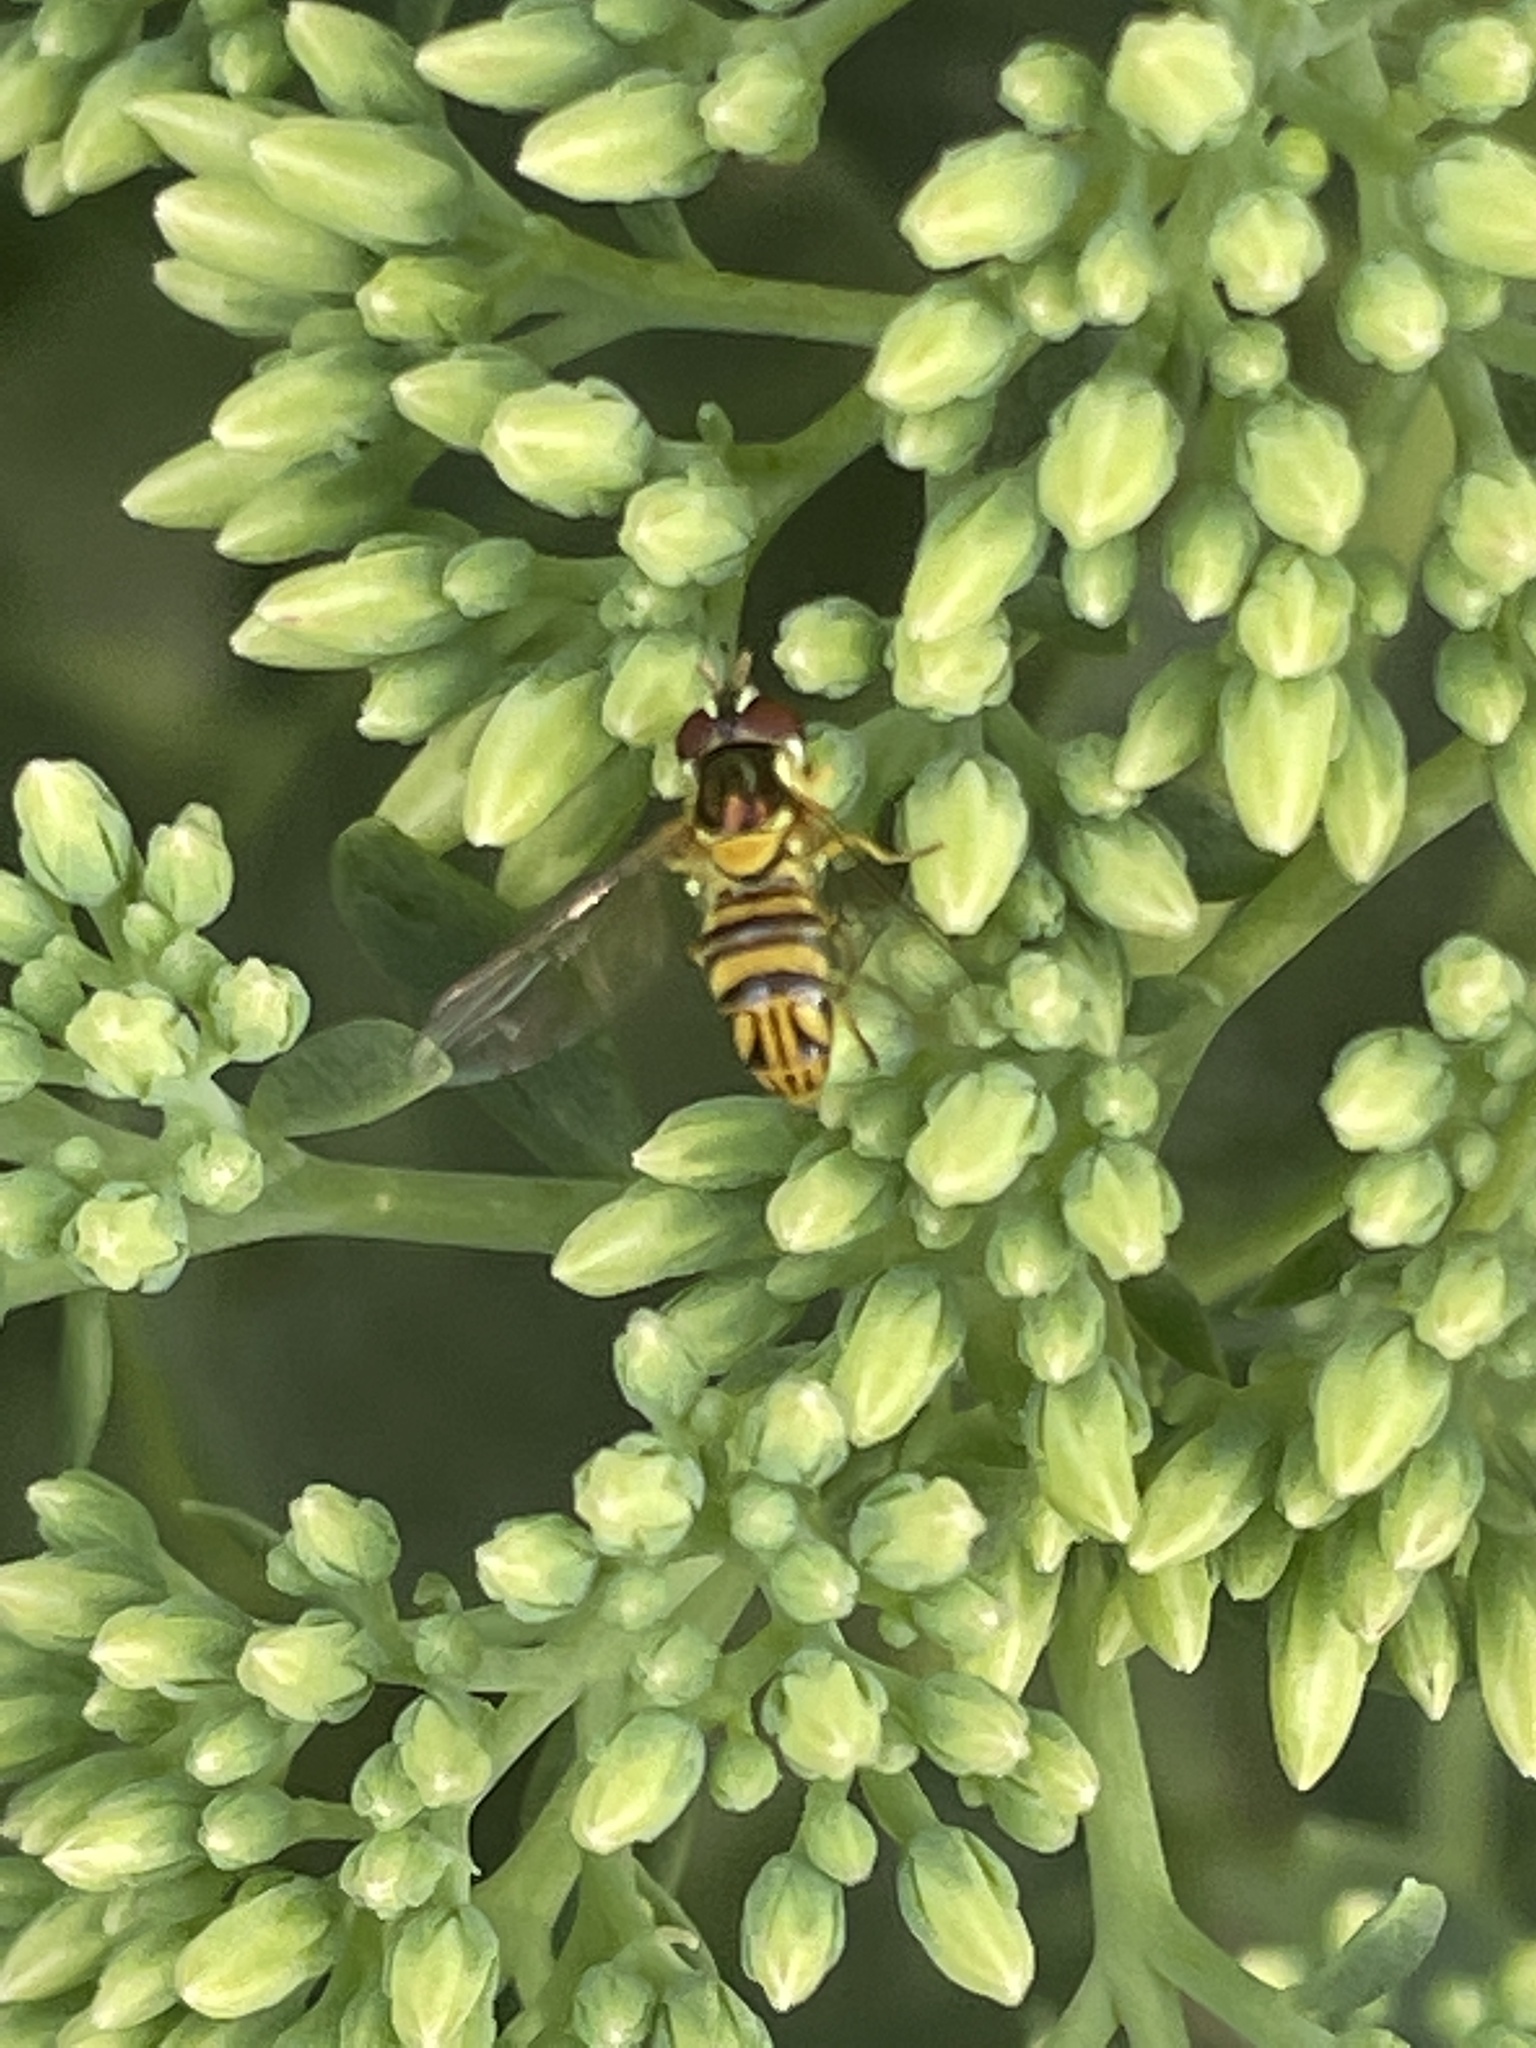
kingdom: Animalia
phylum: Arthropoda
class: Insecta
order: Diptera
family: Syrphidae
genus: Allograpta
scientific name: Allograpta obliqua
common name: Common oblique syrphid
